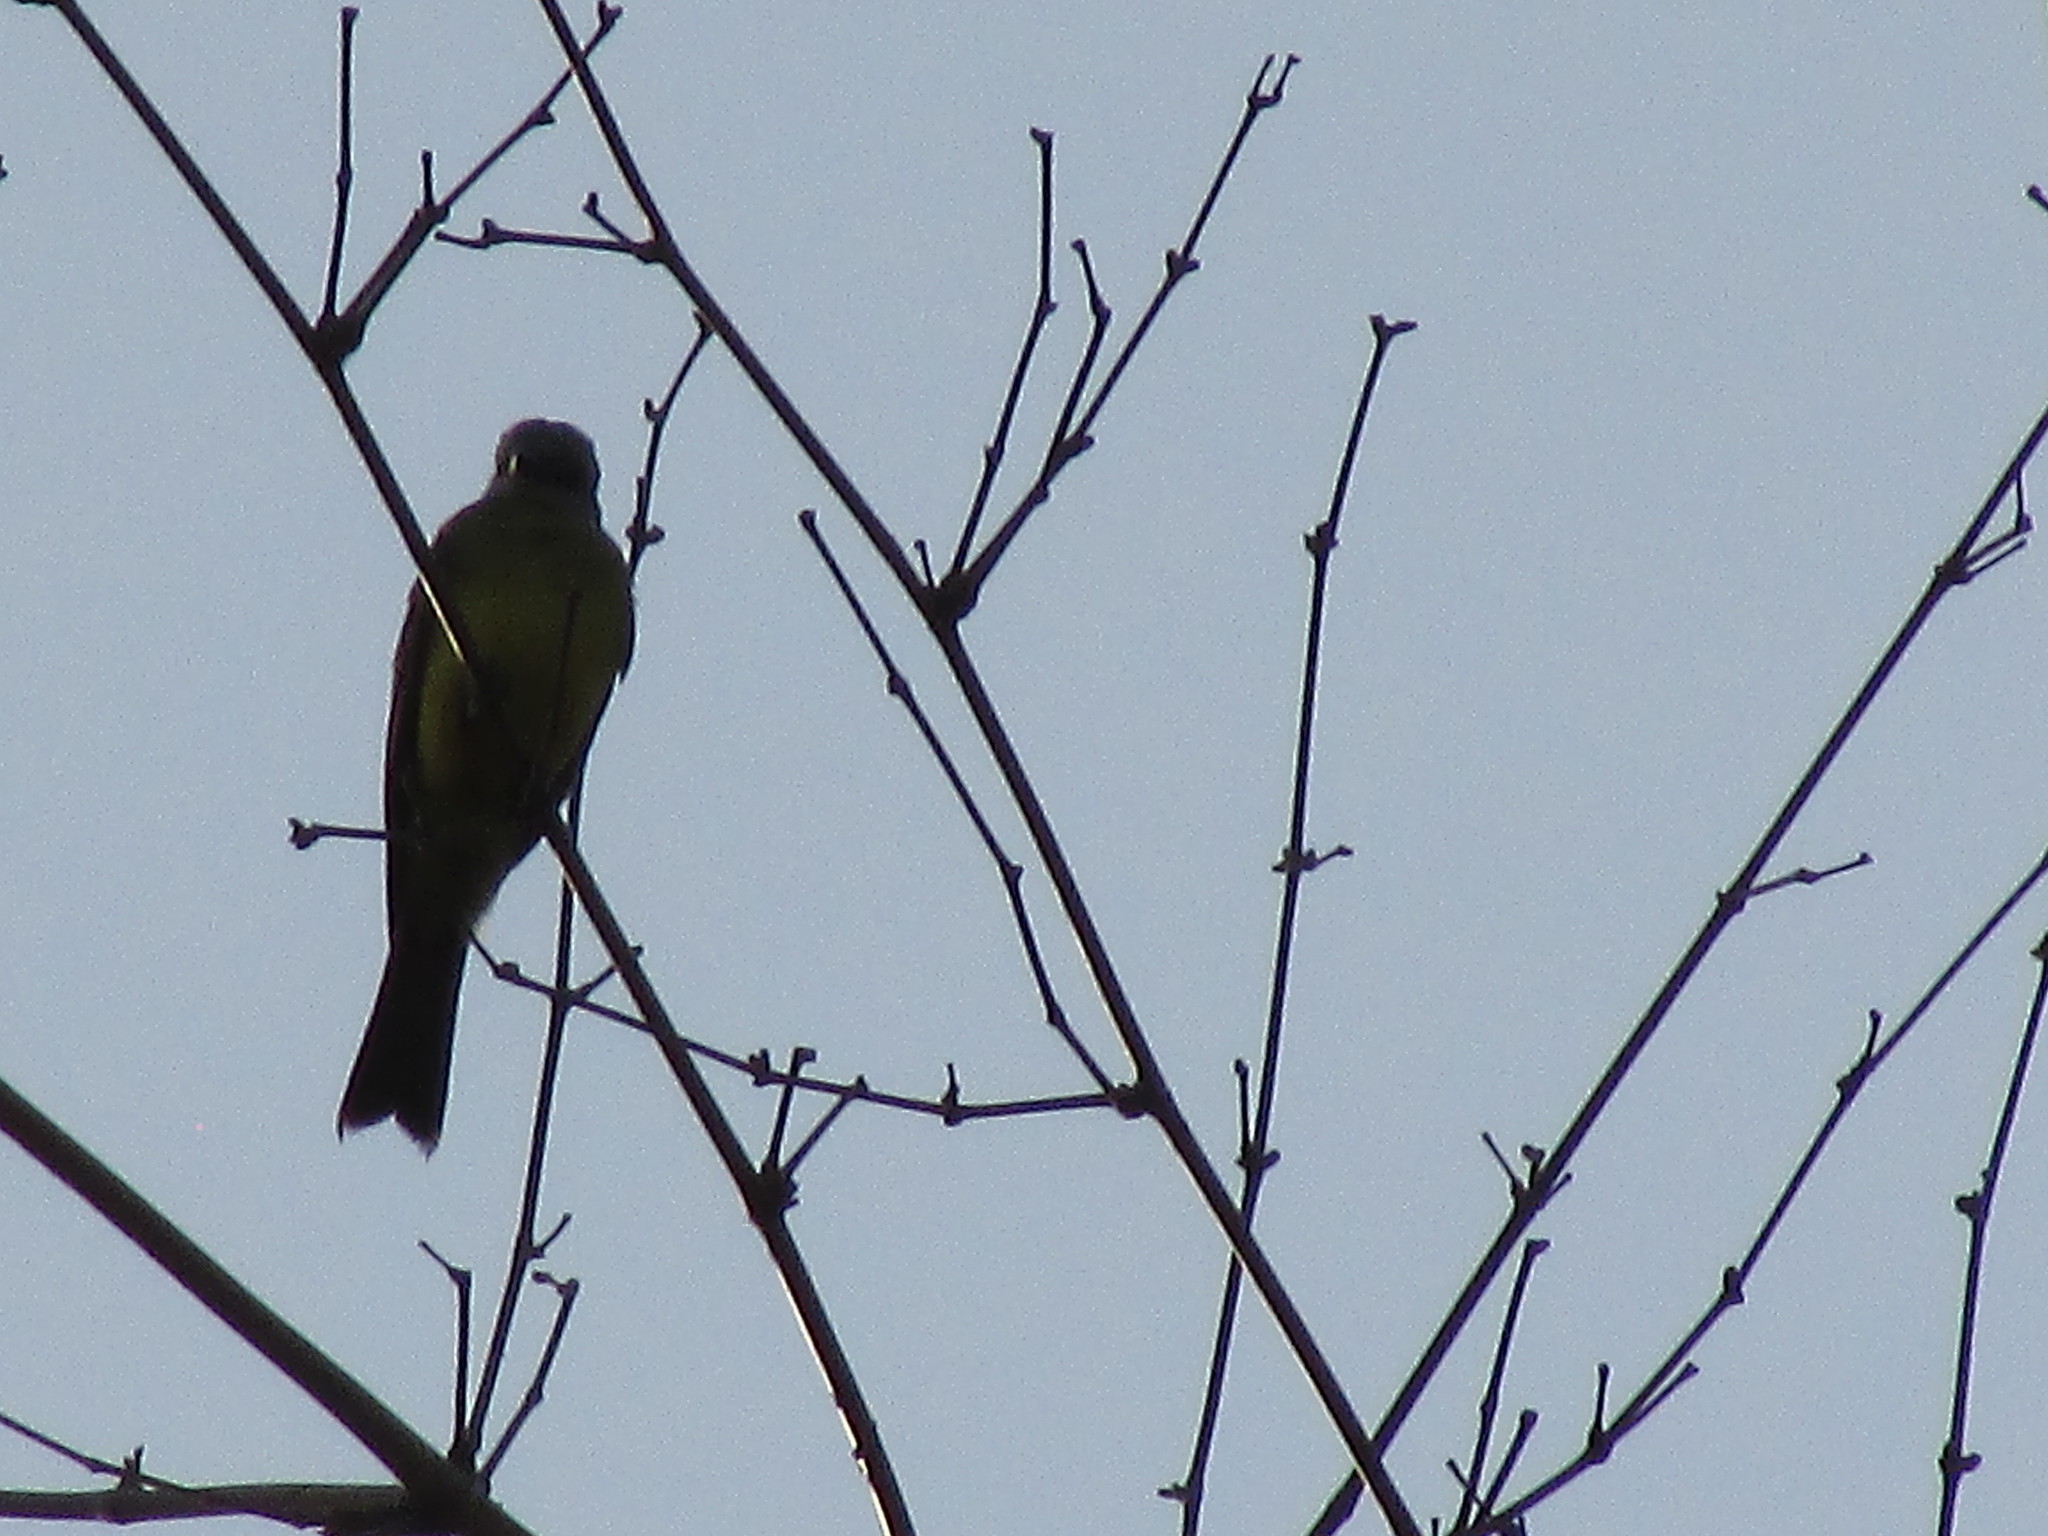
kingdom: Animalia
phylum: Chordata
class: Aves
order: Passeriformes
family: Tyrannidae
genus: Tyrannus
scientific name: Tyrannus melancholicus
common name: Tropical kingbird
